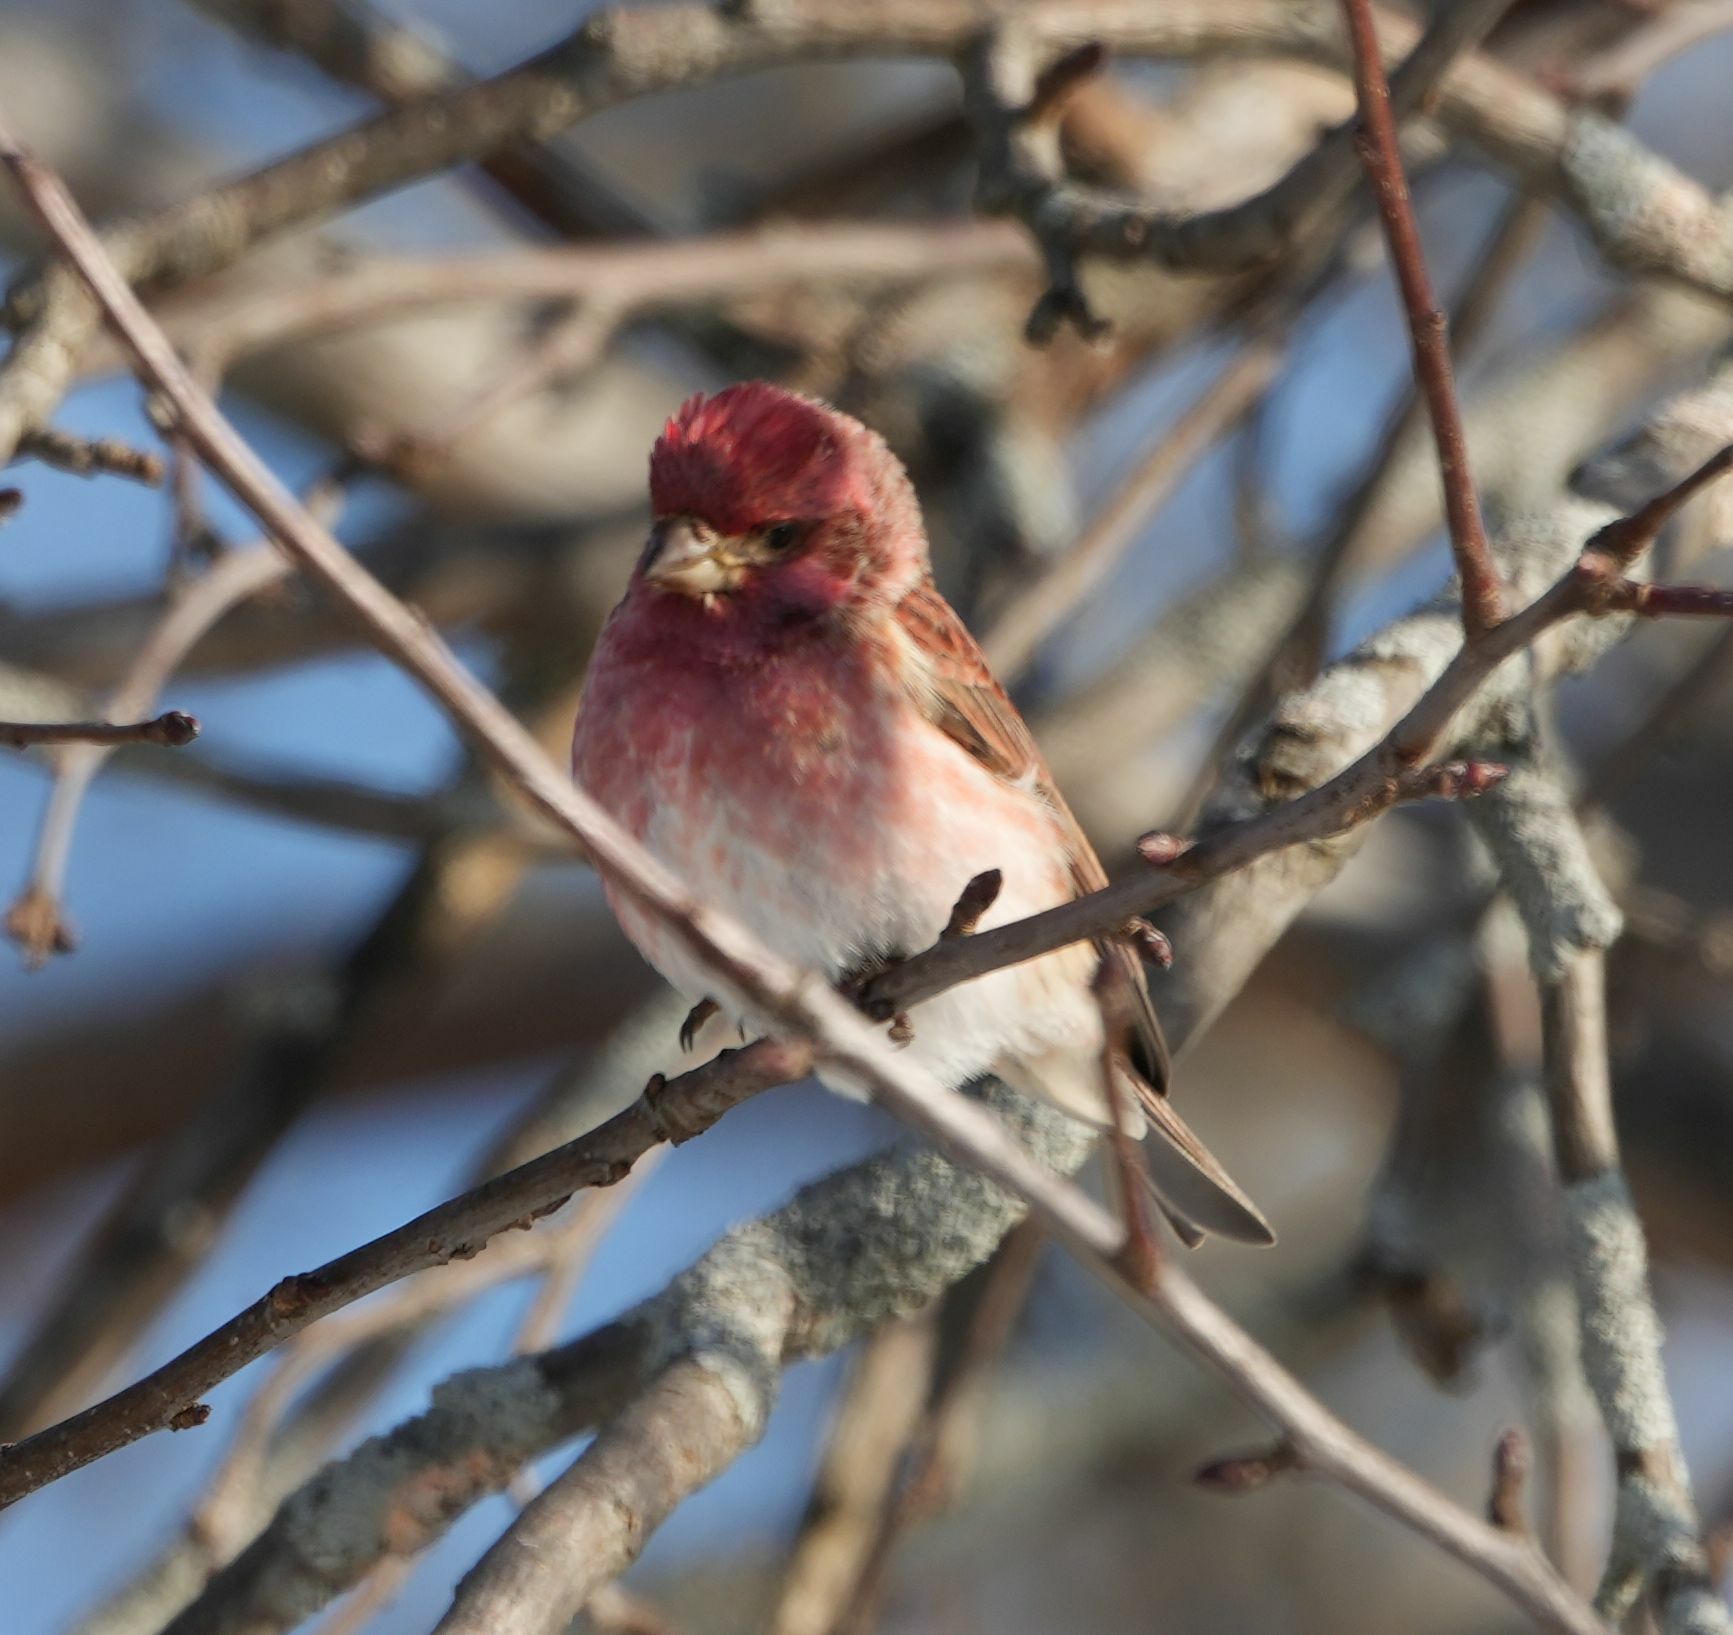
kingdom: Animalia
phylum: Chordata
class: Aves
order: Passeriformes
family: Fringillidae
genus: Haemorhous
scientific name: Haemorhous purpureus
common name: Purple finch
